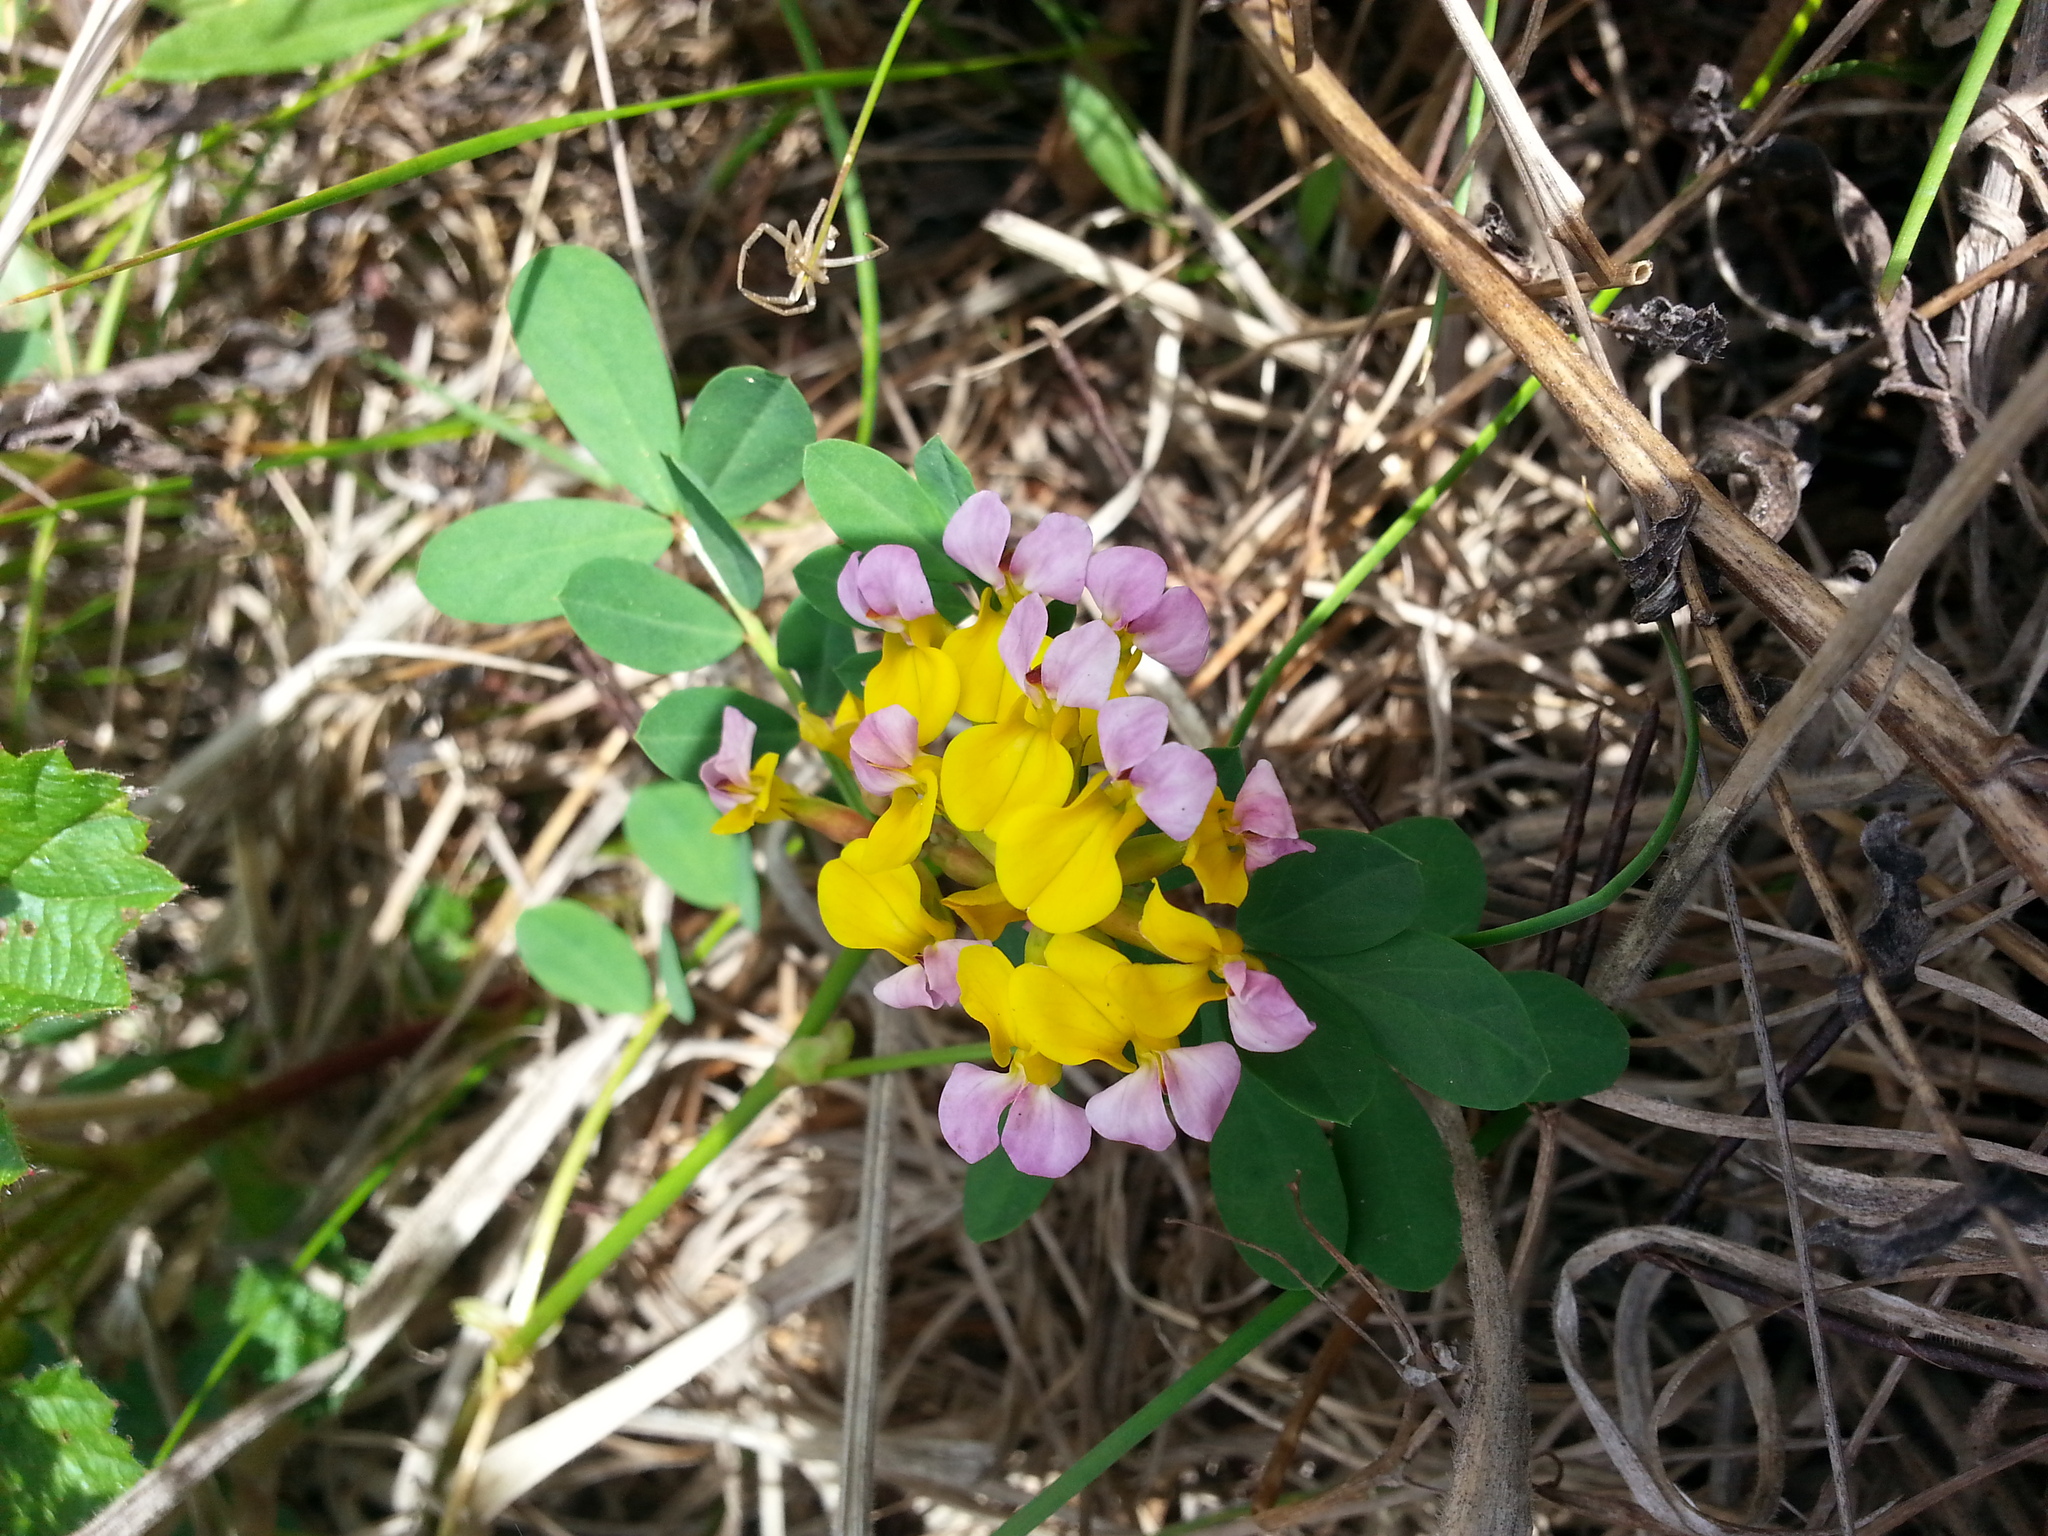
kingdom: Plantae
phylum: Tracheophyta
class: Magnoliopsida
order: Fabales
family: Fabaceae
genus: Hosackia
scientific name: Hosackia gracilis
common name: Seaside bird's-foot lotus
